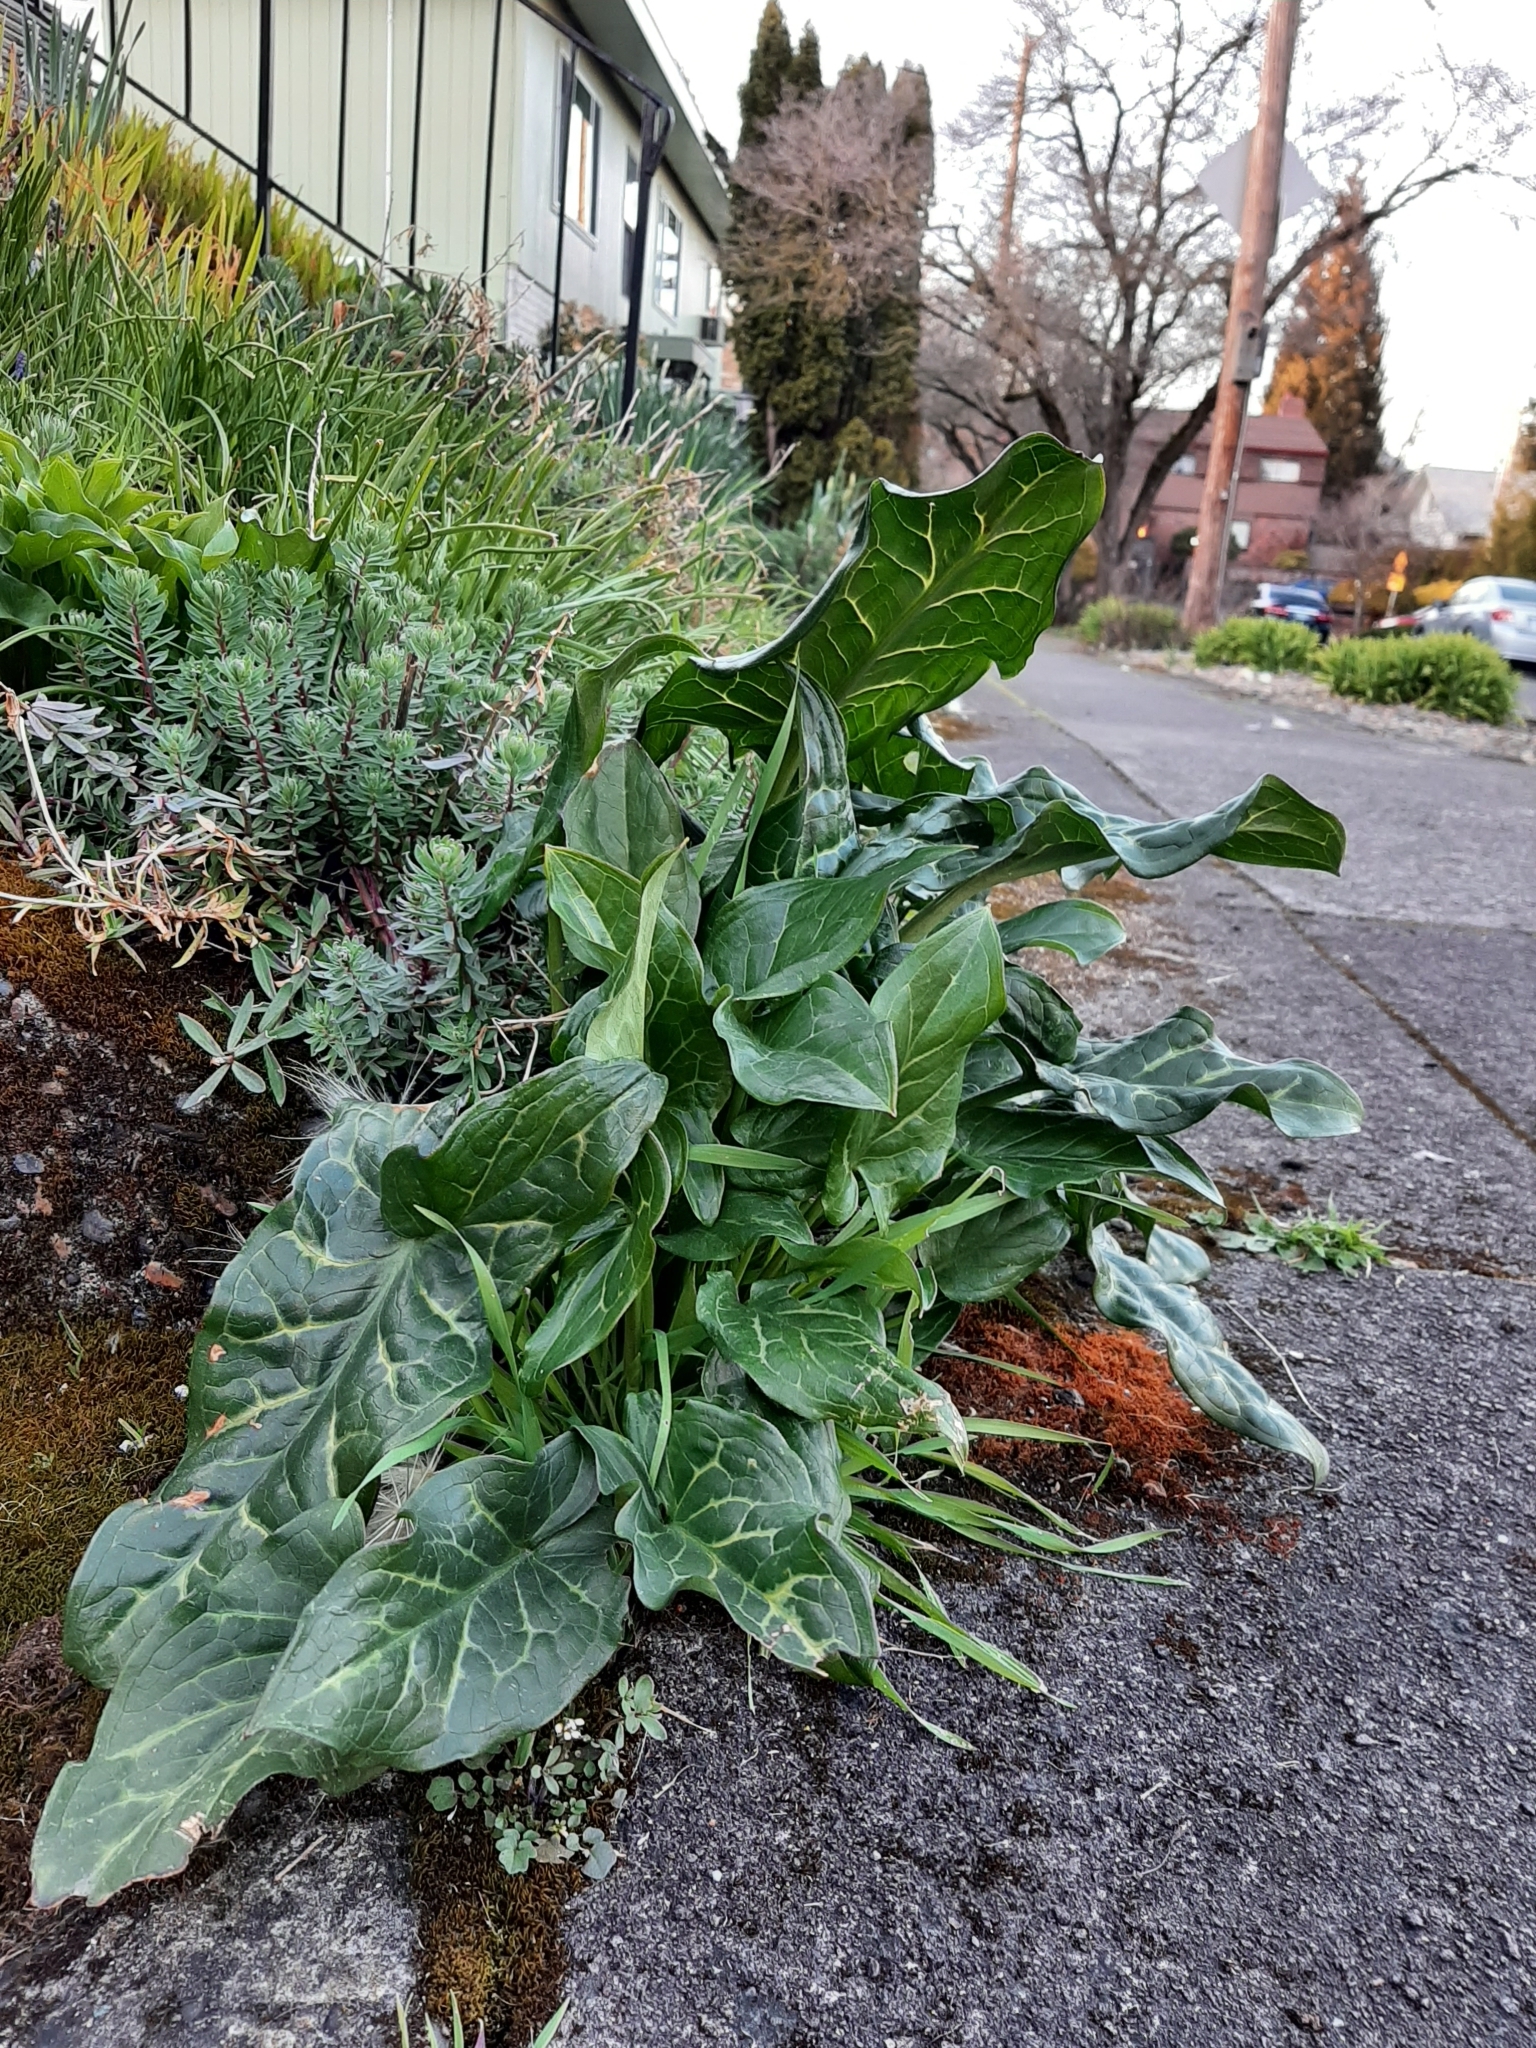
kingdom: Plantae
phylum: Tracheophyta
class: Liliopsida
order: Alismatales
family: Araceae
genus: Arum
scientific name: Arum italicum
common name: Italian lords-and-ladies
